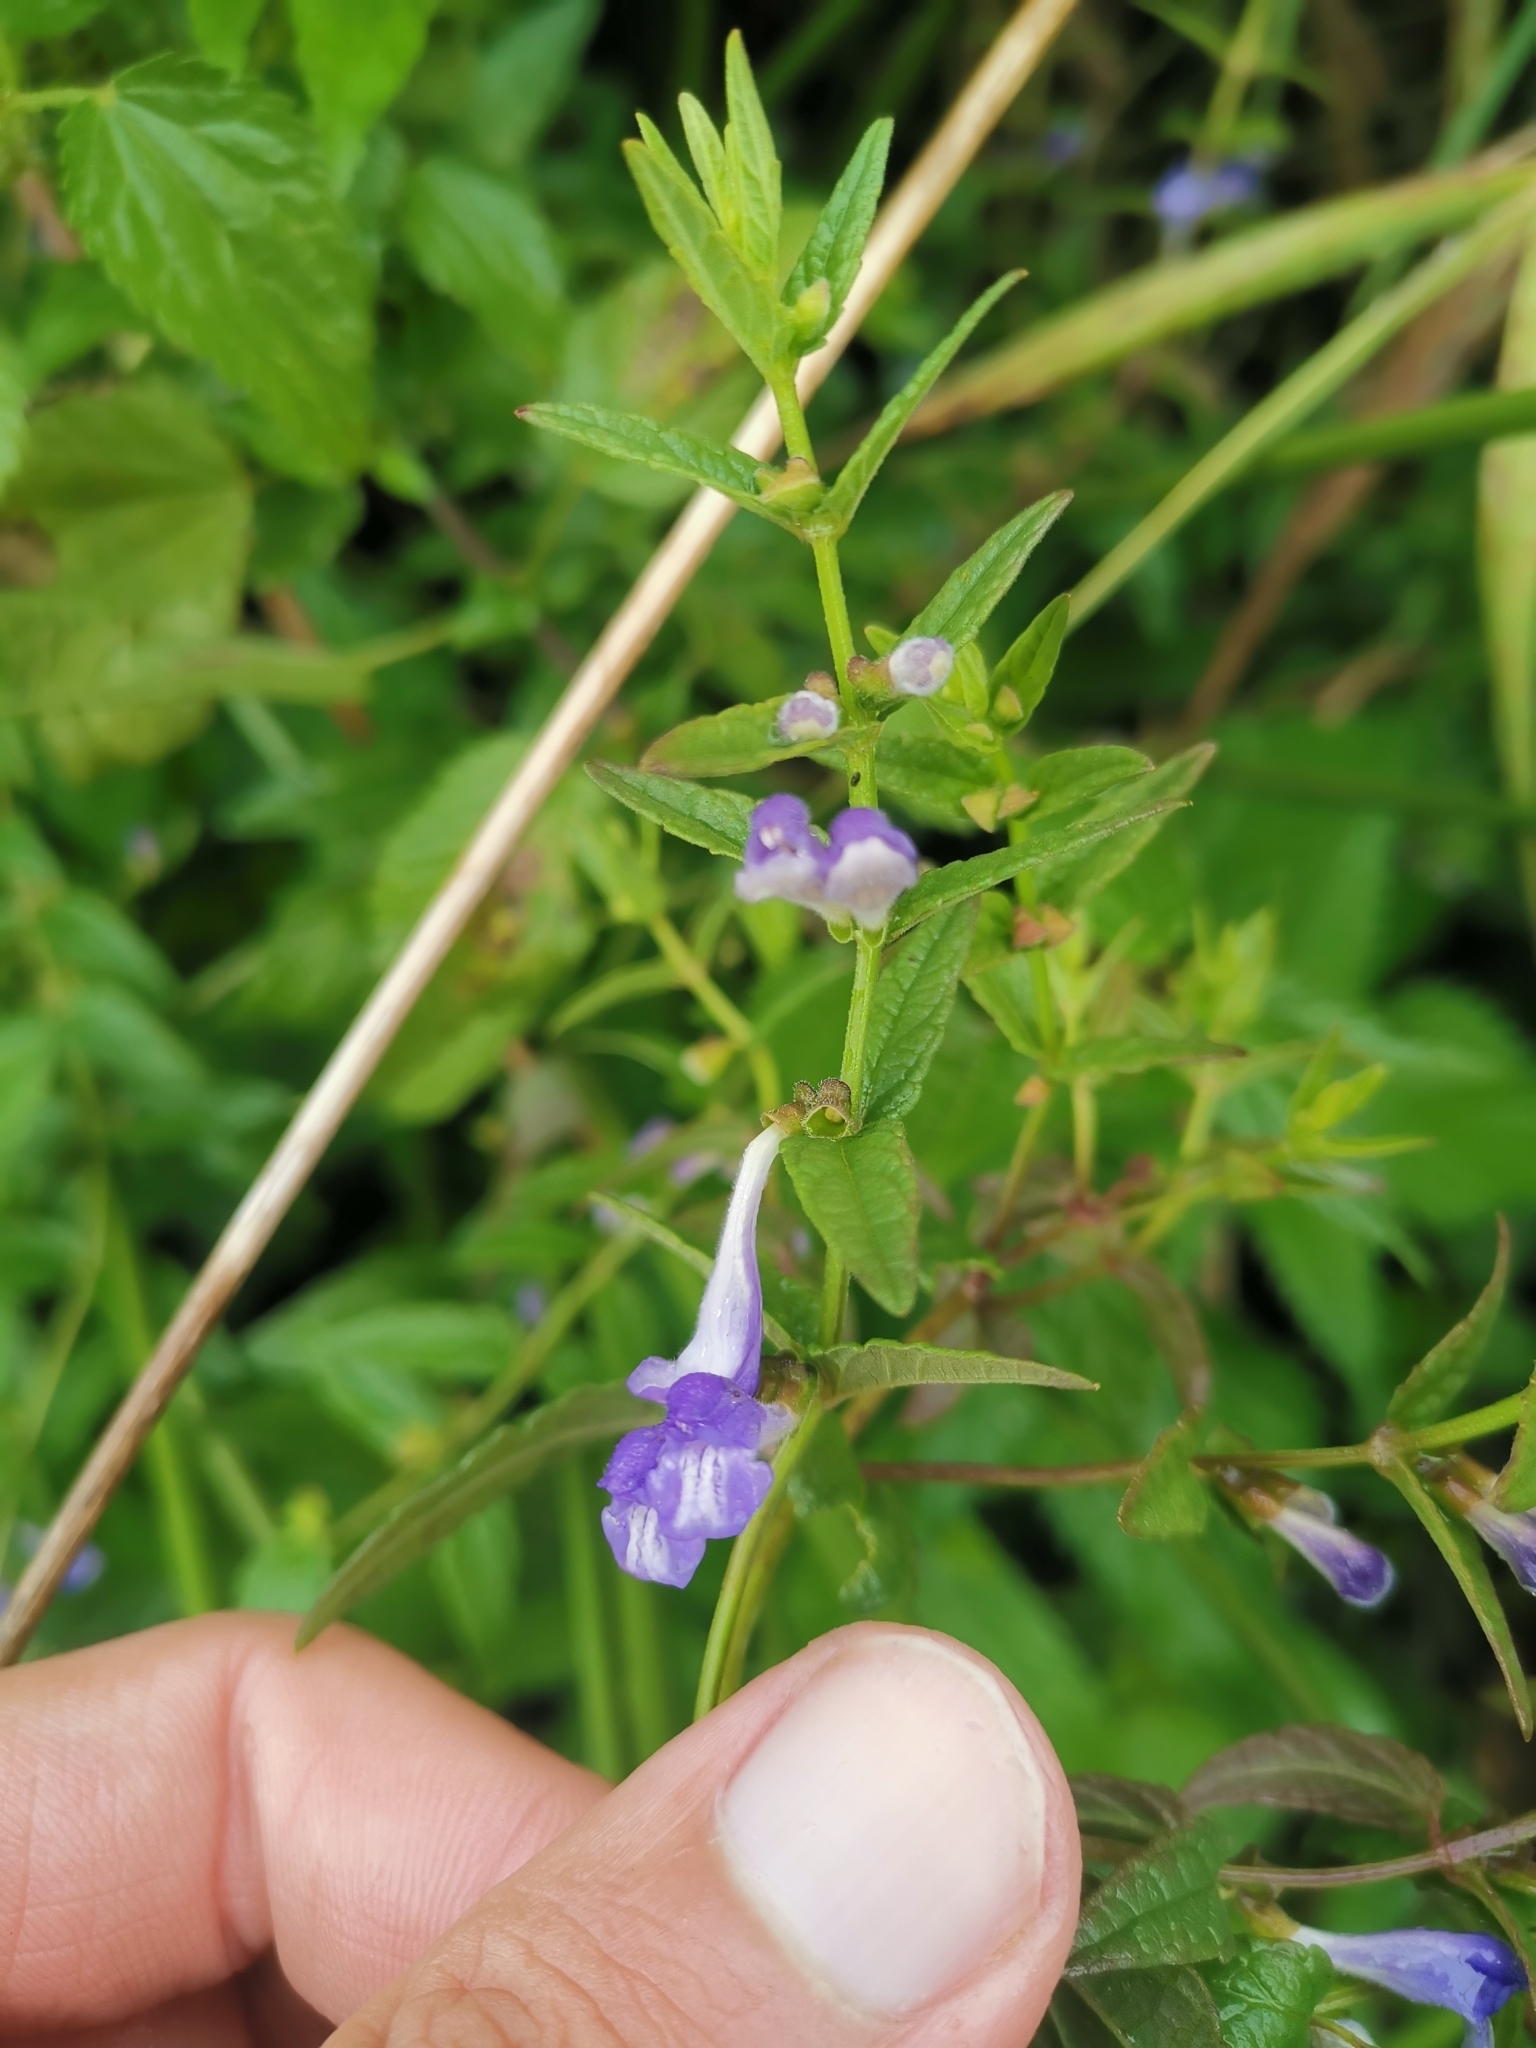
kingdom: Plantae
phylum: Tracheophyta
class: Magnoliopsida
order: Lamiales
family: Lamiaceae
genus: Scutellaria
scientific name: Scutellaria galericulata
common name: Skullcap
